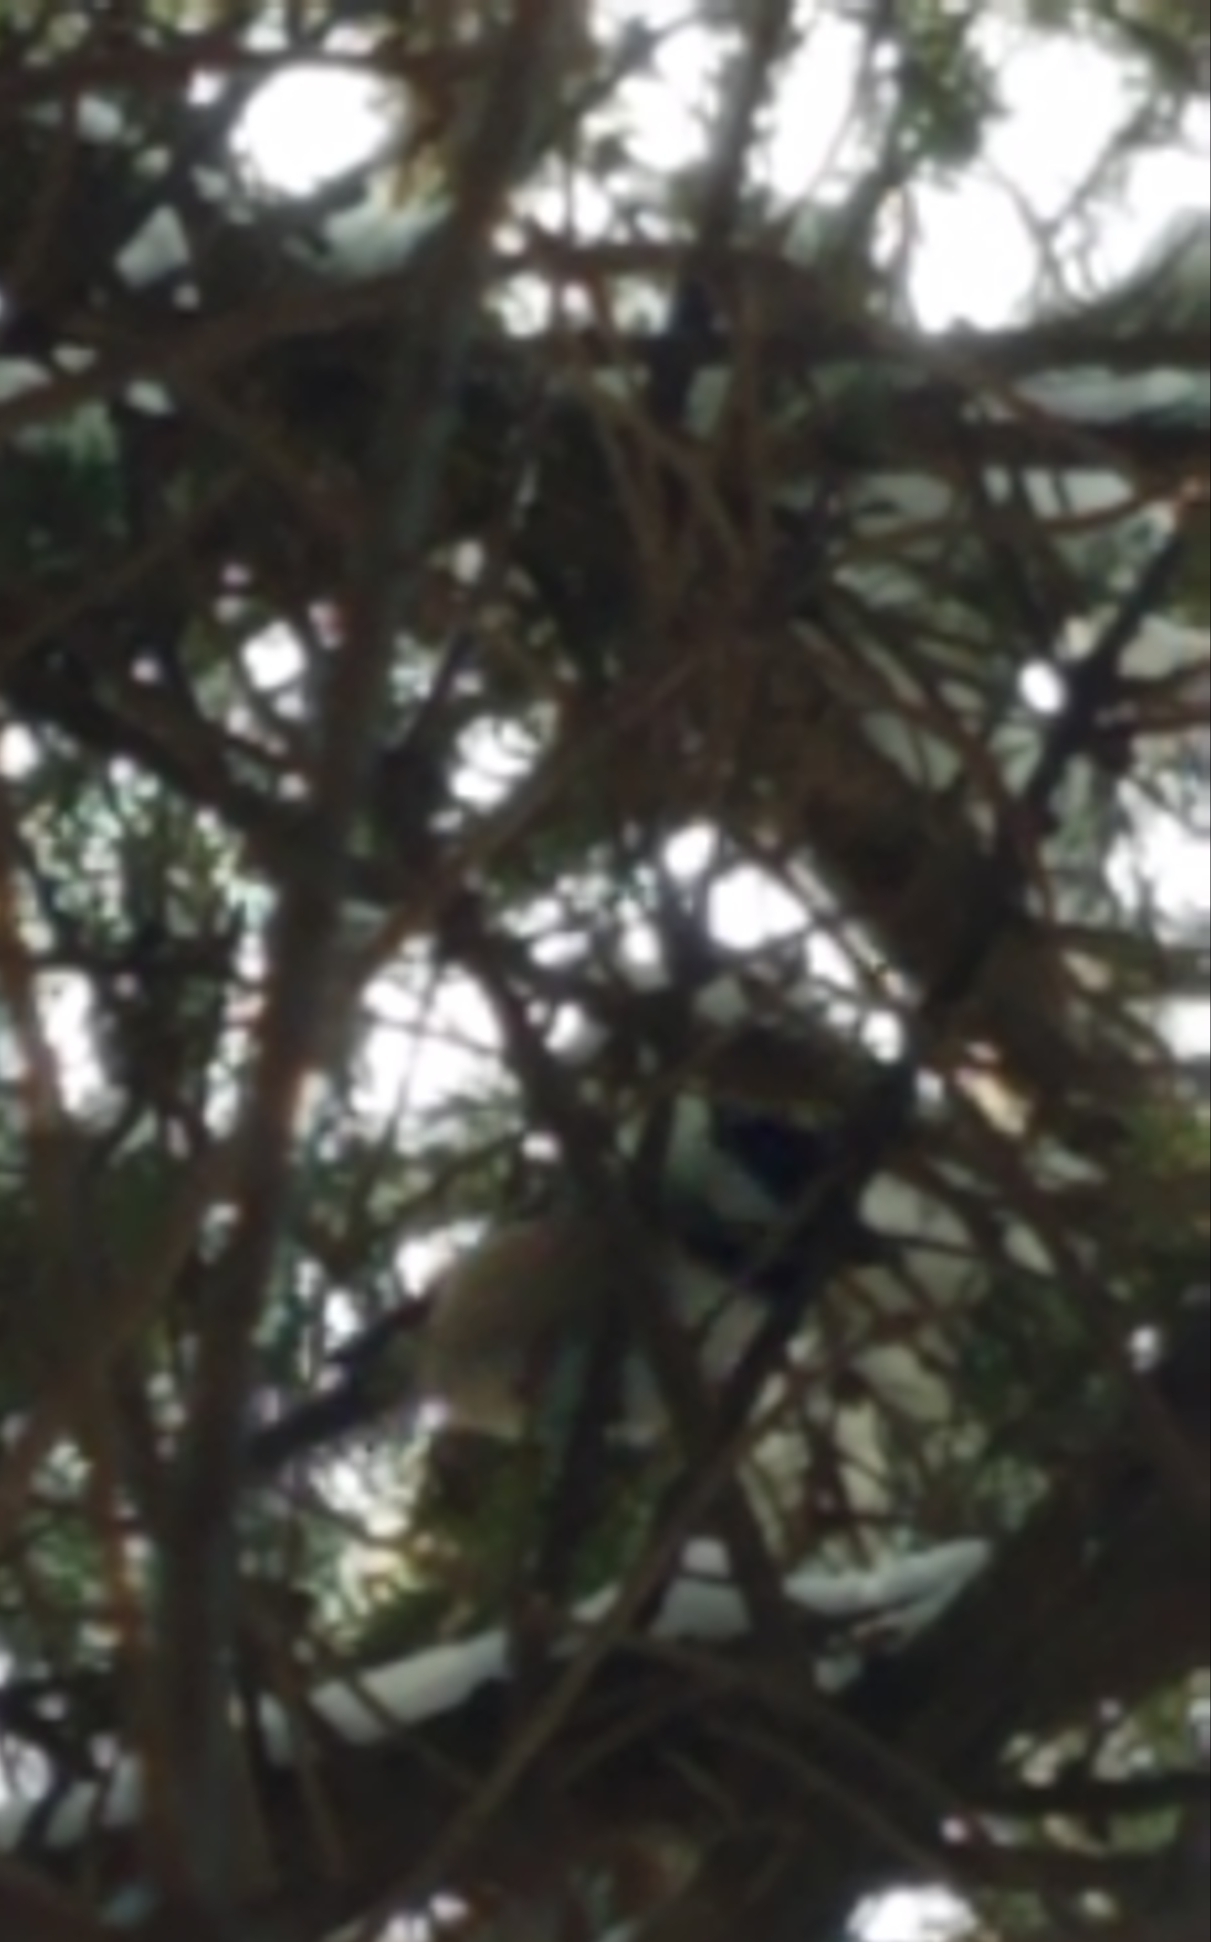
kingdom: Animalia
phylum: Chordata
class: Aves
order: Passeriformes
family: Paridae
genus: Poecile
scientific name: Poecile atricapillus
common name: Black-capped chickadee
